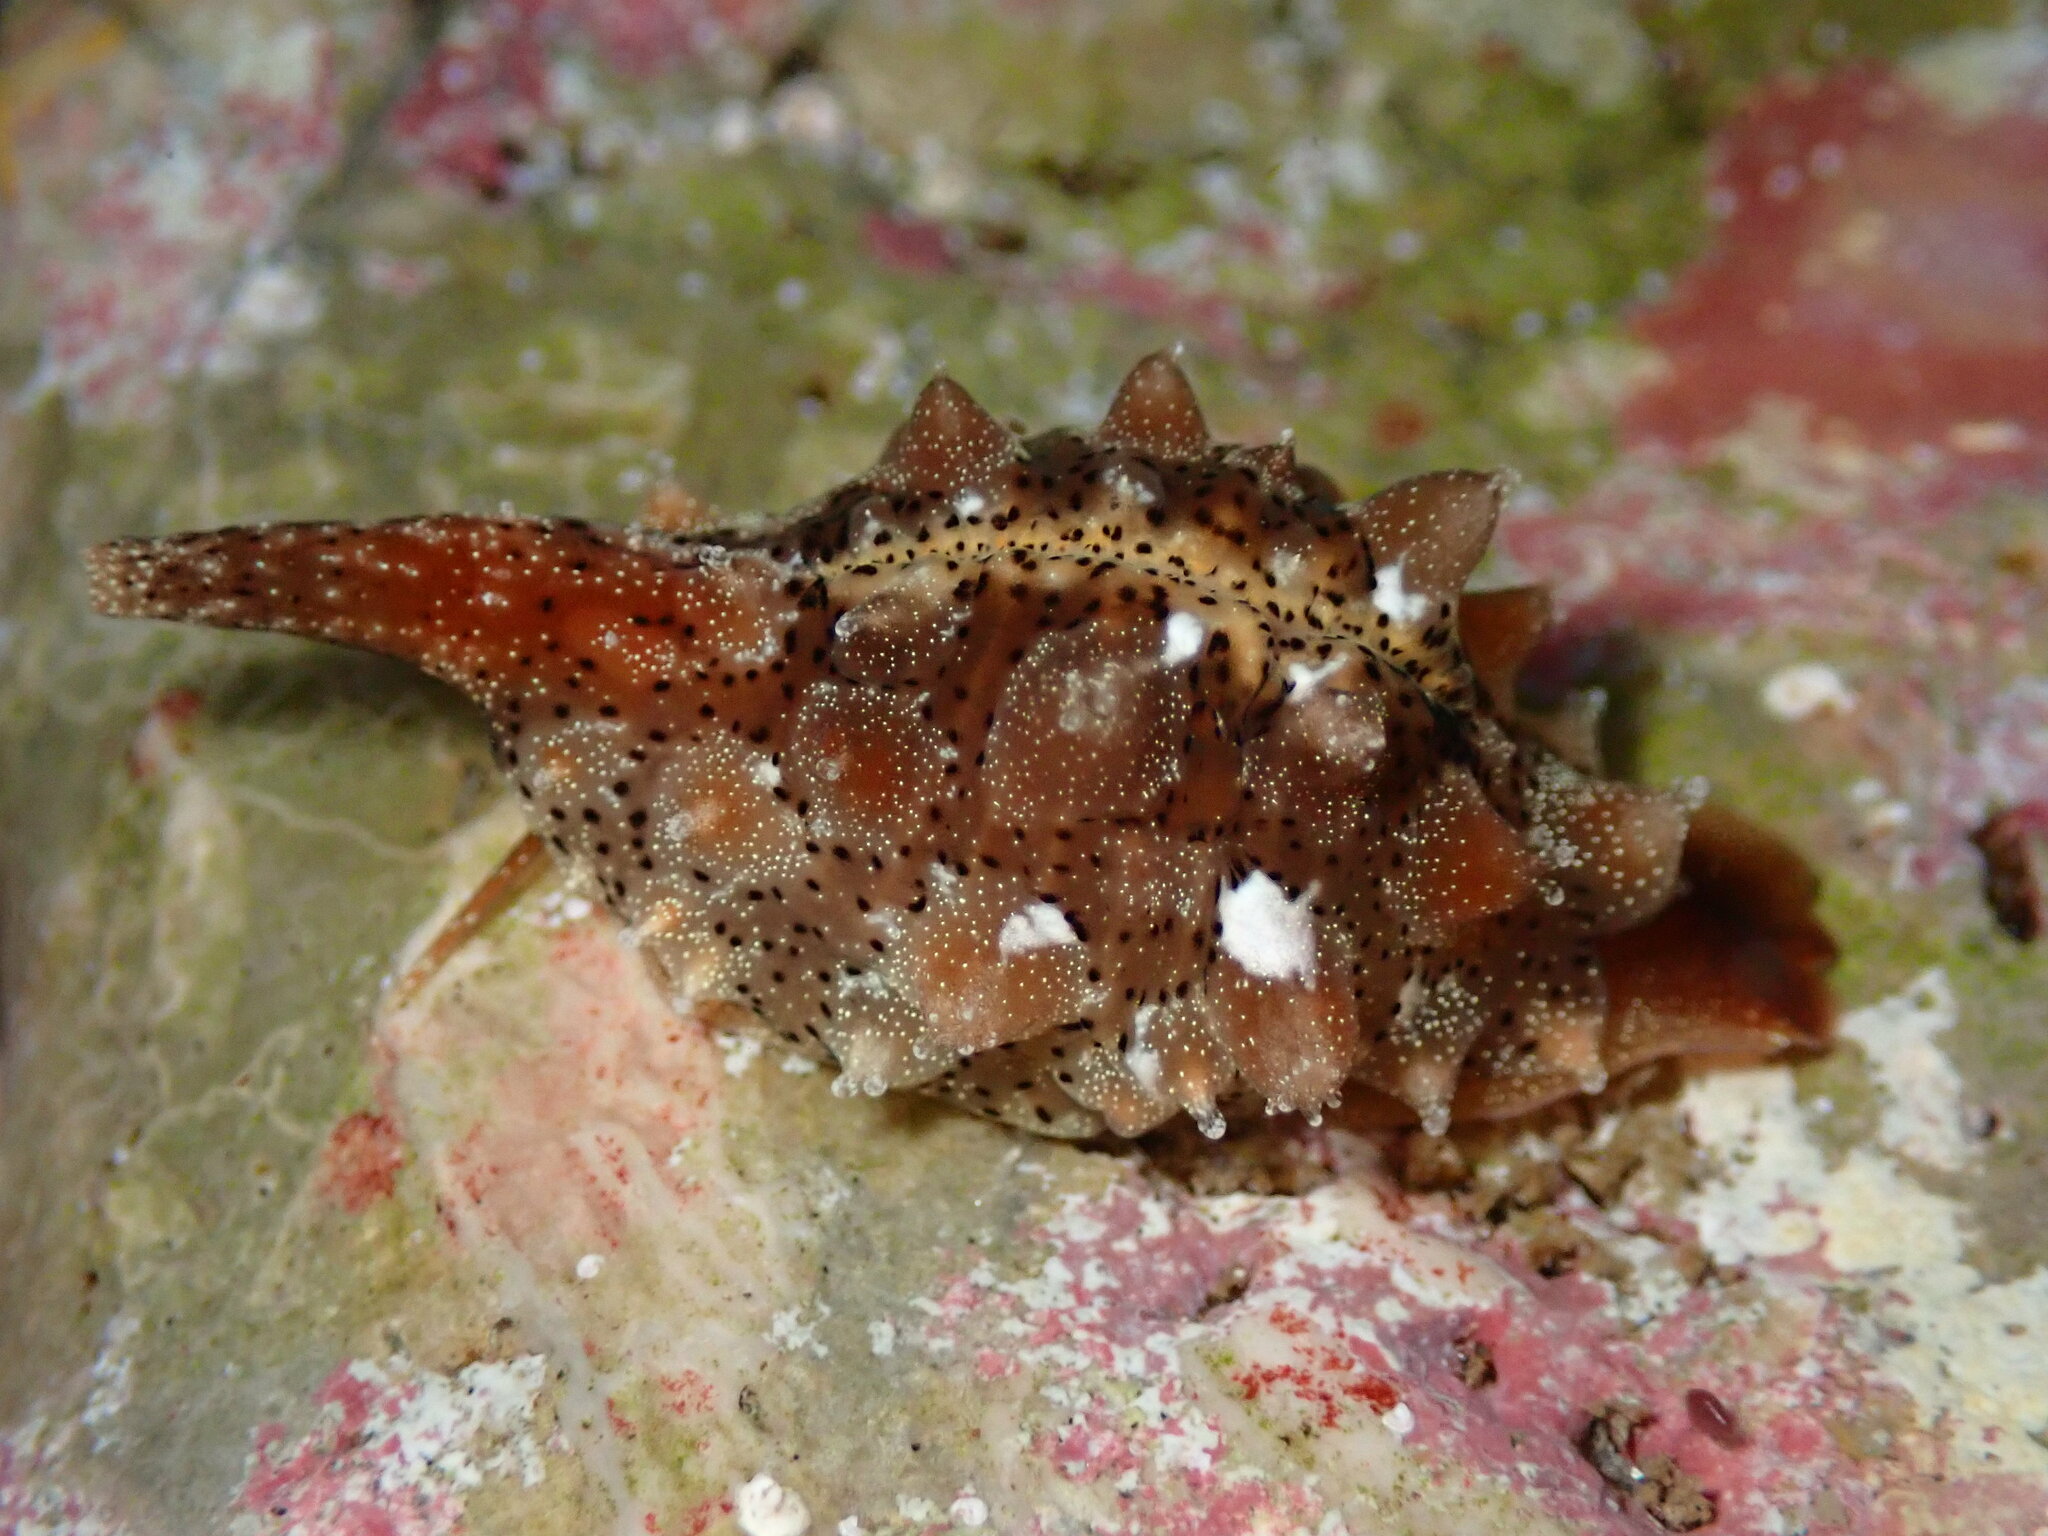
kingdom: Animalia
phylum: Mollusca
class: Gastropoda
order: Littorinimorpha
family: Triviidae
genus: Pusula
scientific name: Pusula solandri
